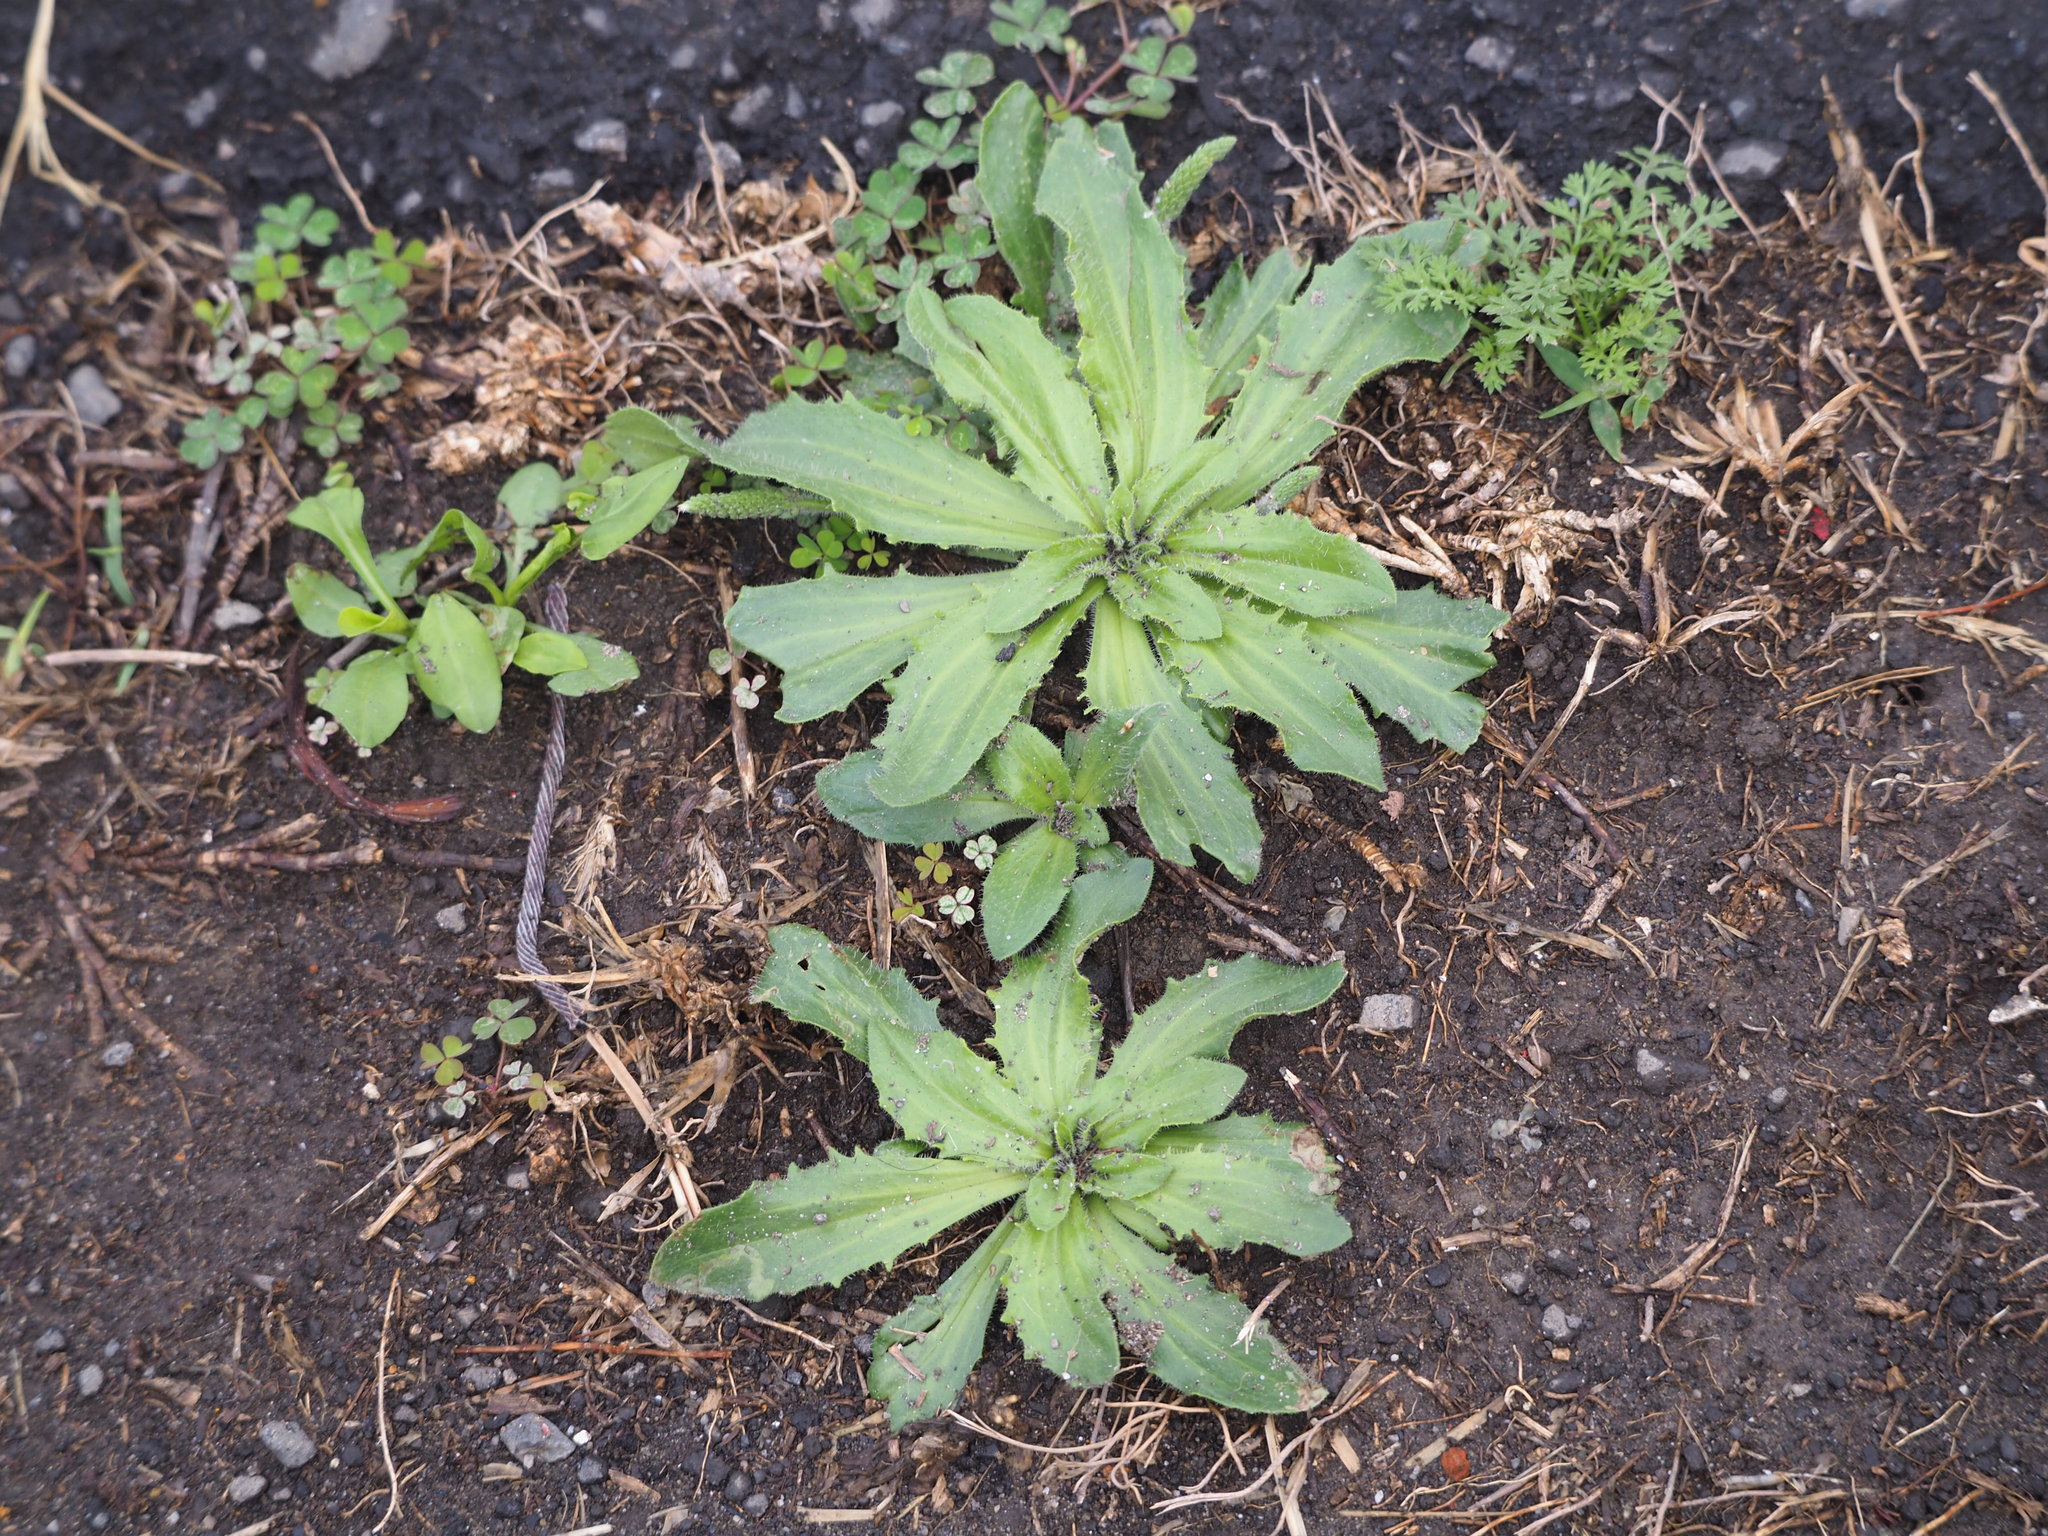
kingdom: Plantae
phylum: Tracheophyta
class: Magnoliopsida
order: Lamiales
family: Plantaginaceae
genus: Plantago
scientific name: Plantago virginica
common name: Hoary plantain
